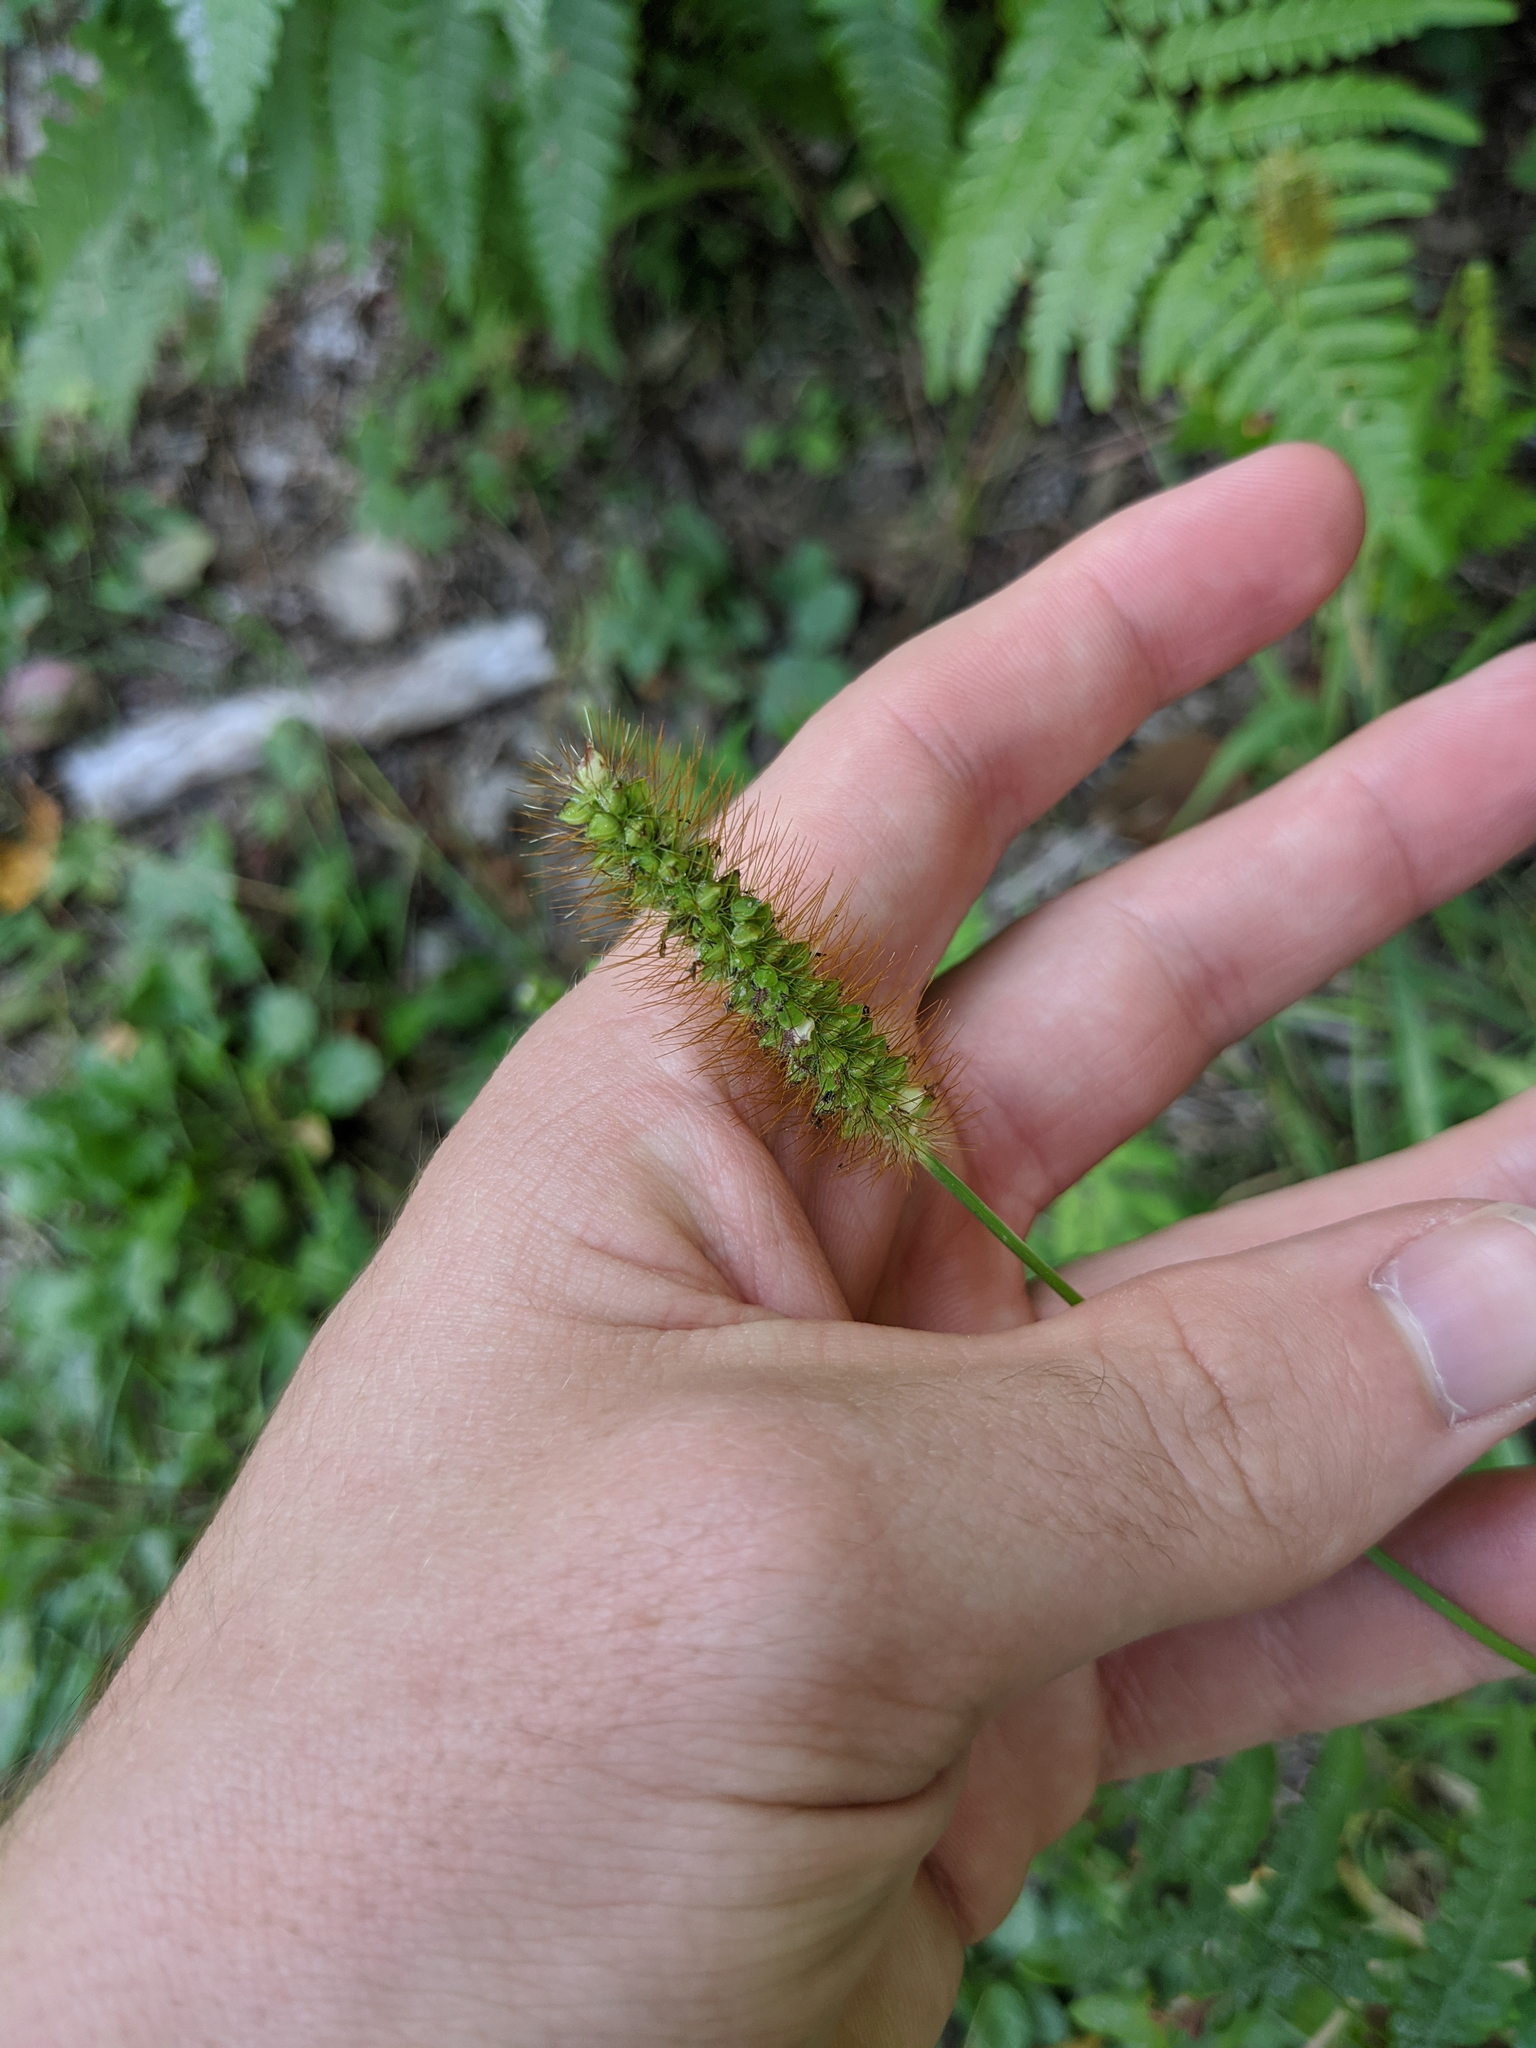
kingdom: Plantae
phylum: Tracheophyta
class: Liliopsida
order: Poales
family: Poaceae
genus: Setaria
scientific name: Setaria pumila
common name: Yellow bristle-grass
